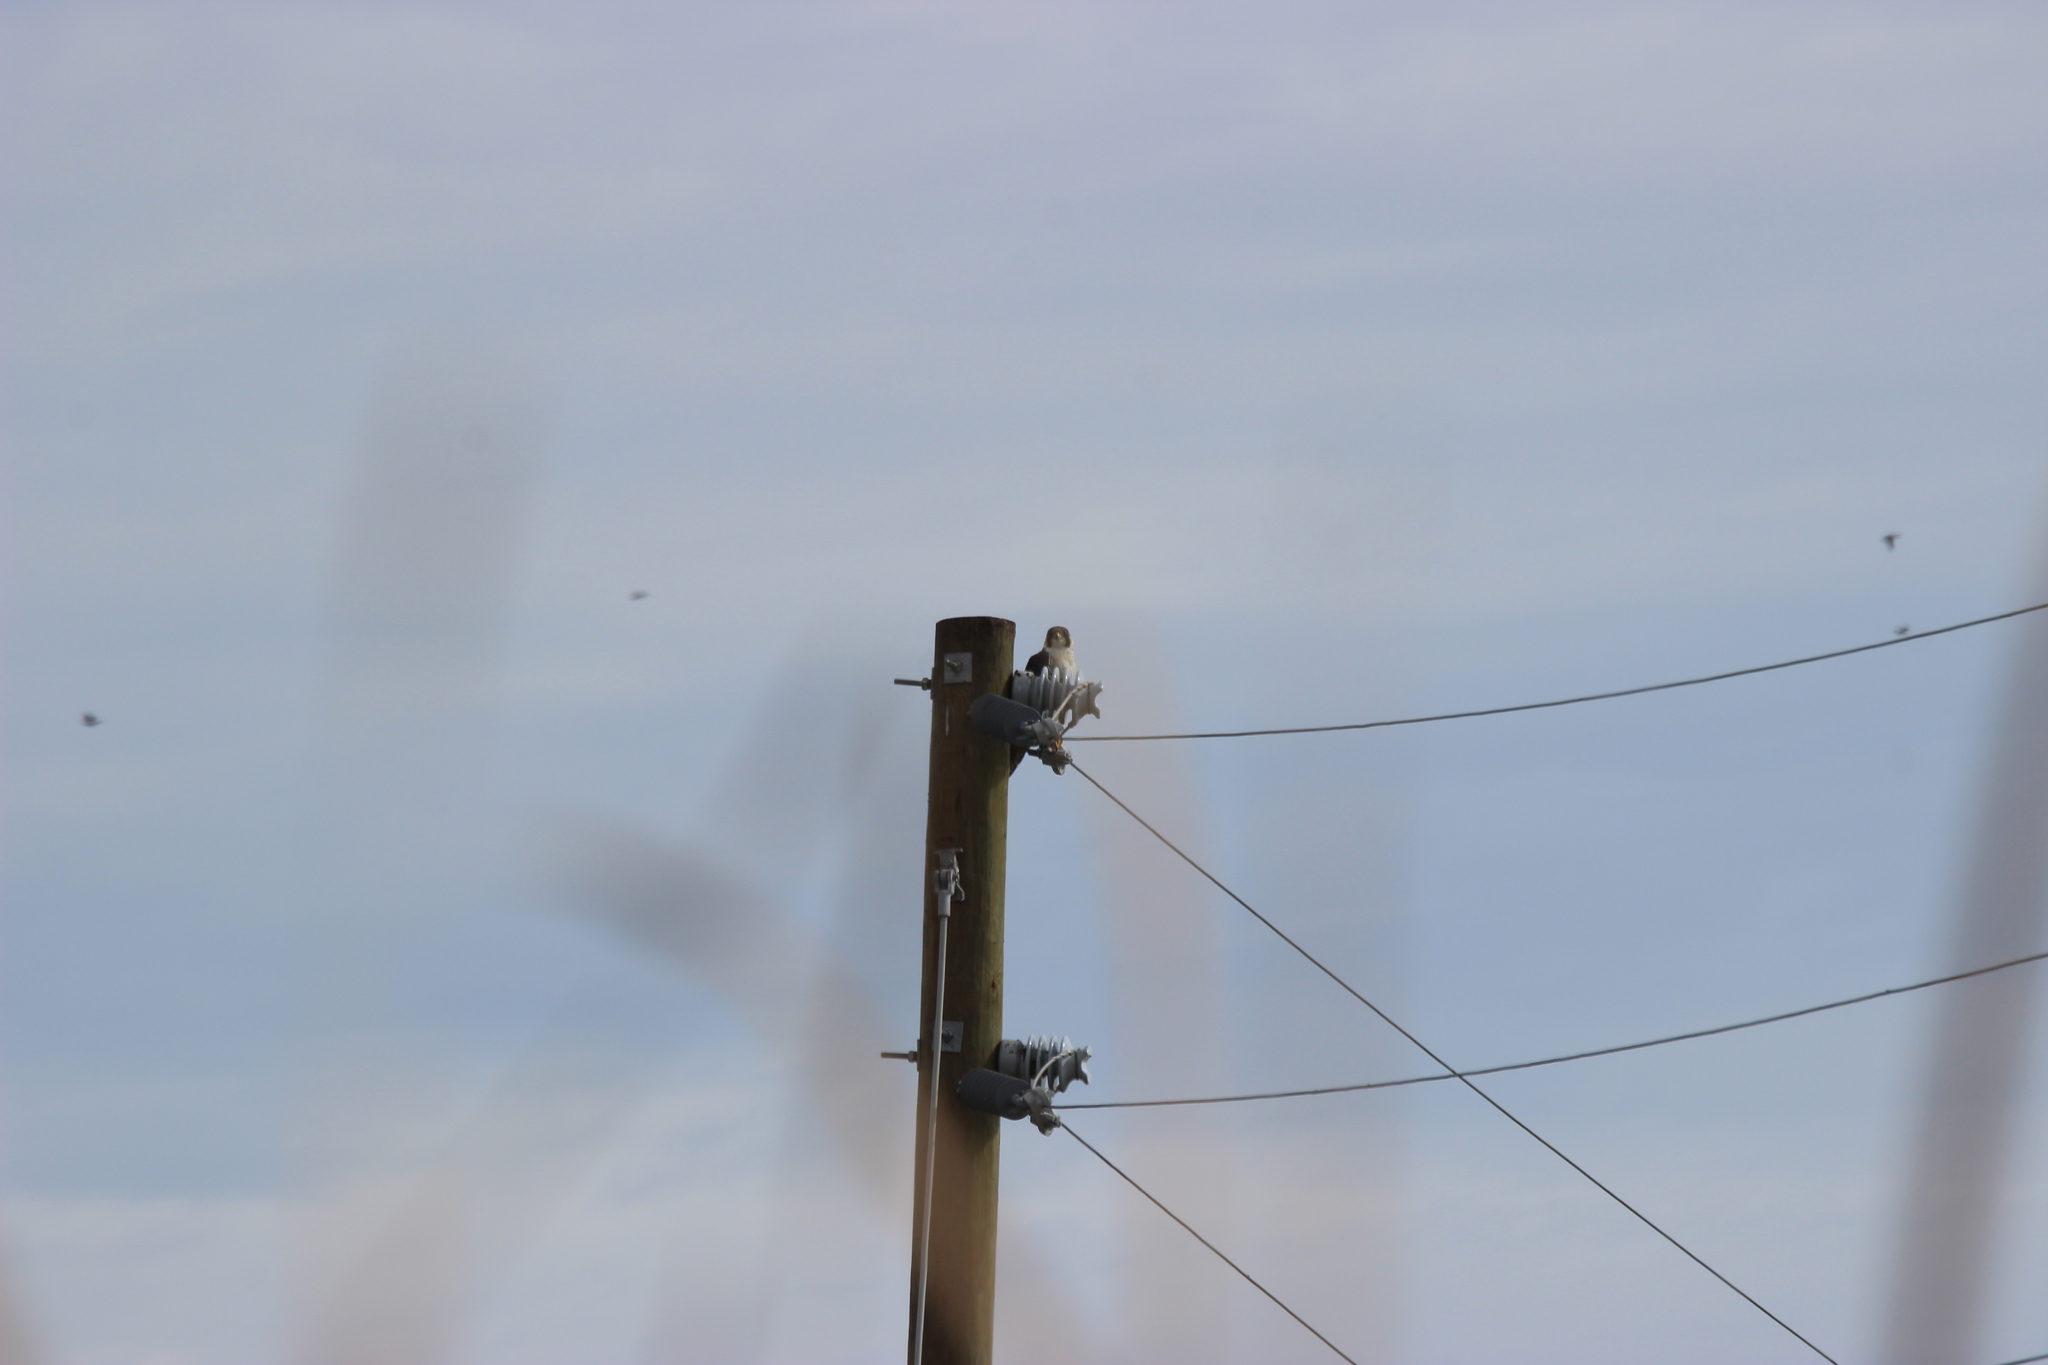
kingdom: Animalia
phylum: Chordata
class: Aves
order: Falconiformes
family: Falconidae
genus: Falco
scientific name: Falco peregrinus
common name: Peregrine falcon
